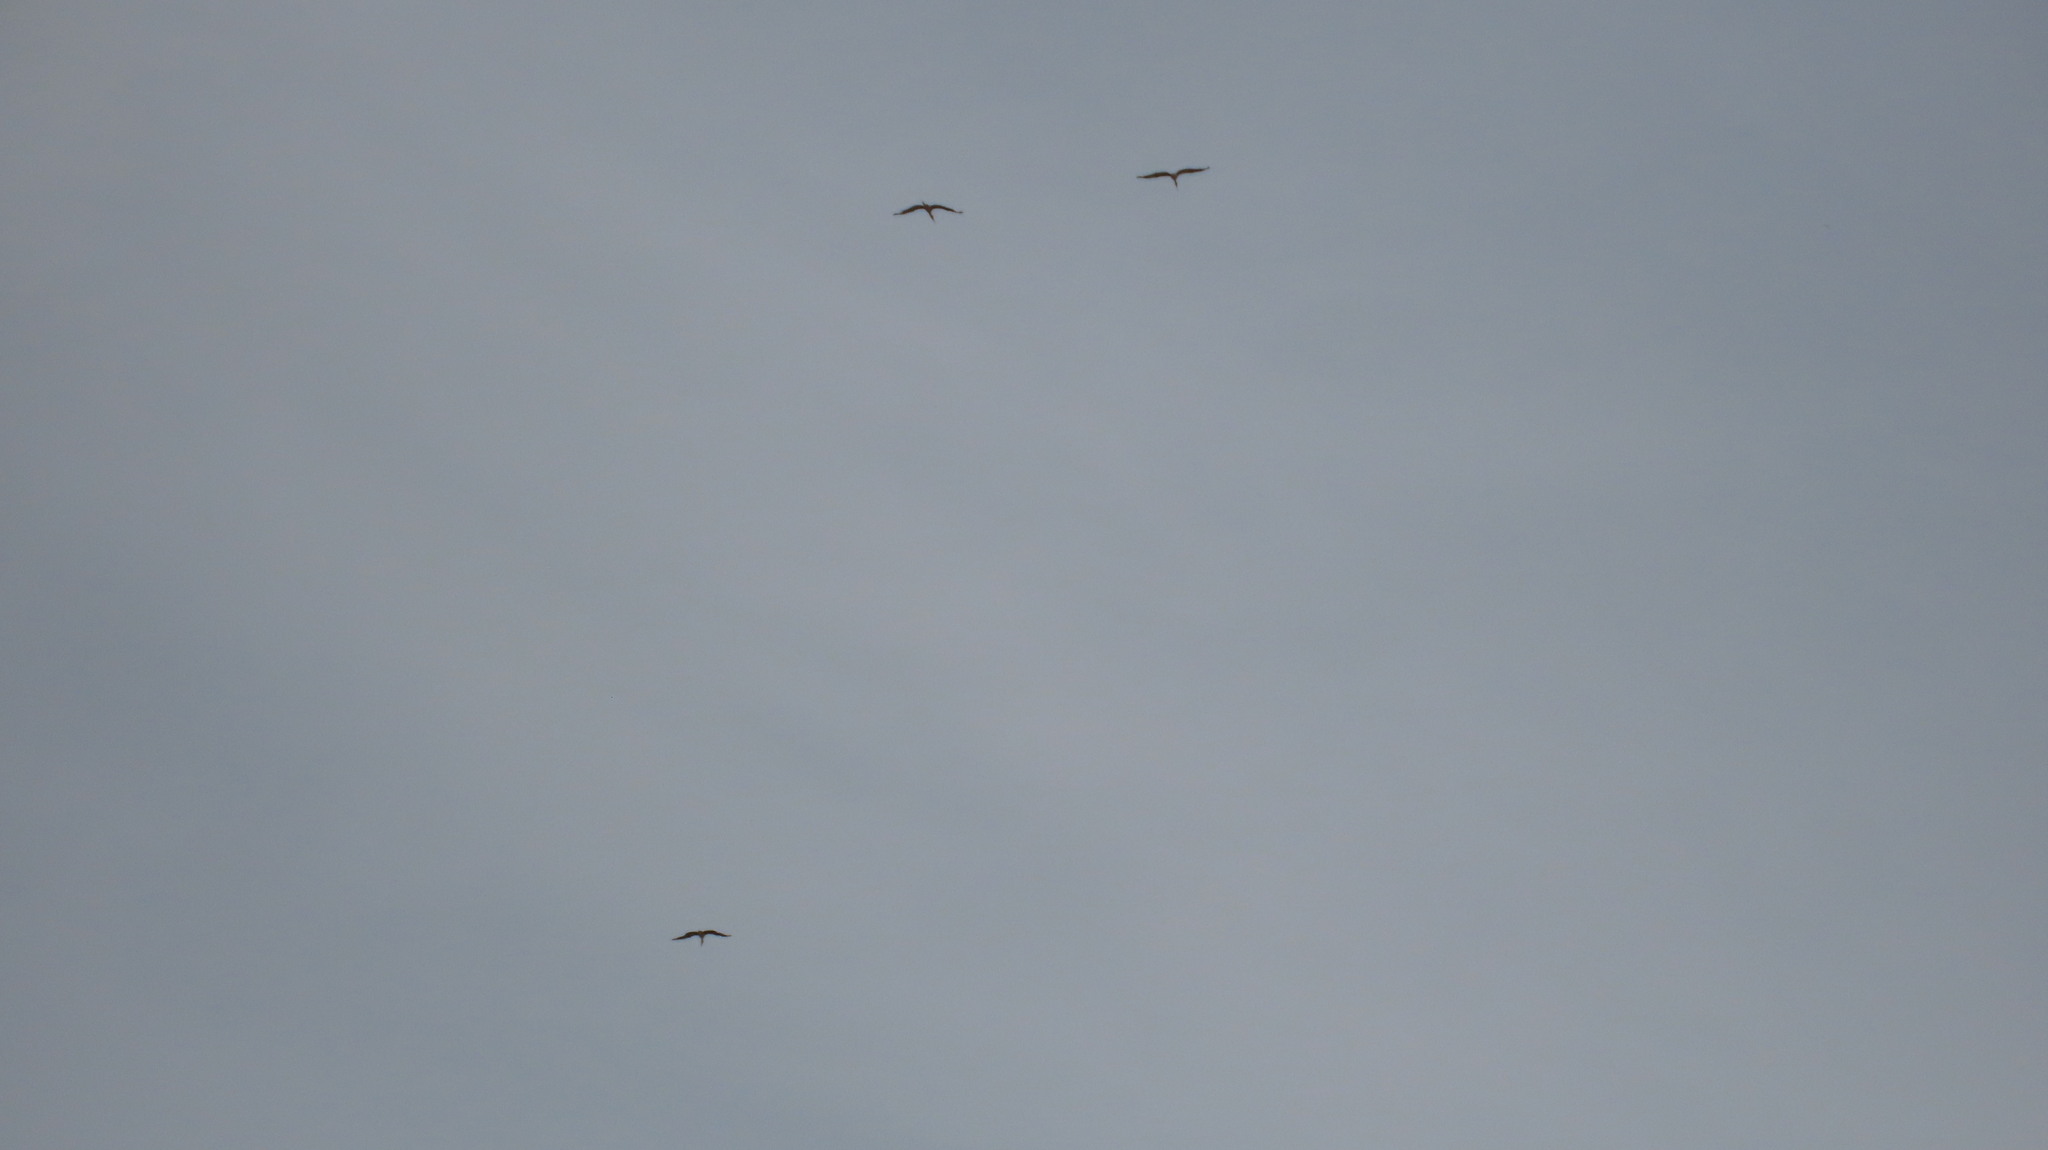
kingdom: Animalia
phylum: Chordata
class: Aves
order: Ciconiiformes
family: Ciconiidae
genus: Mycteria
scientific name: Mycteria leucocephala
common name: Painted stork
